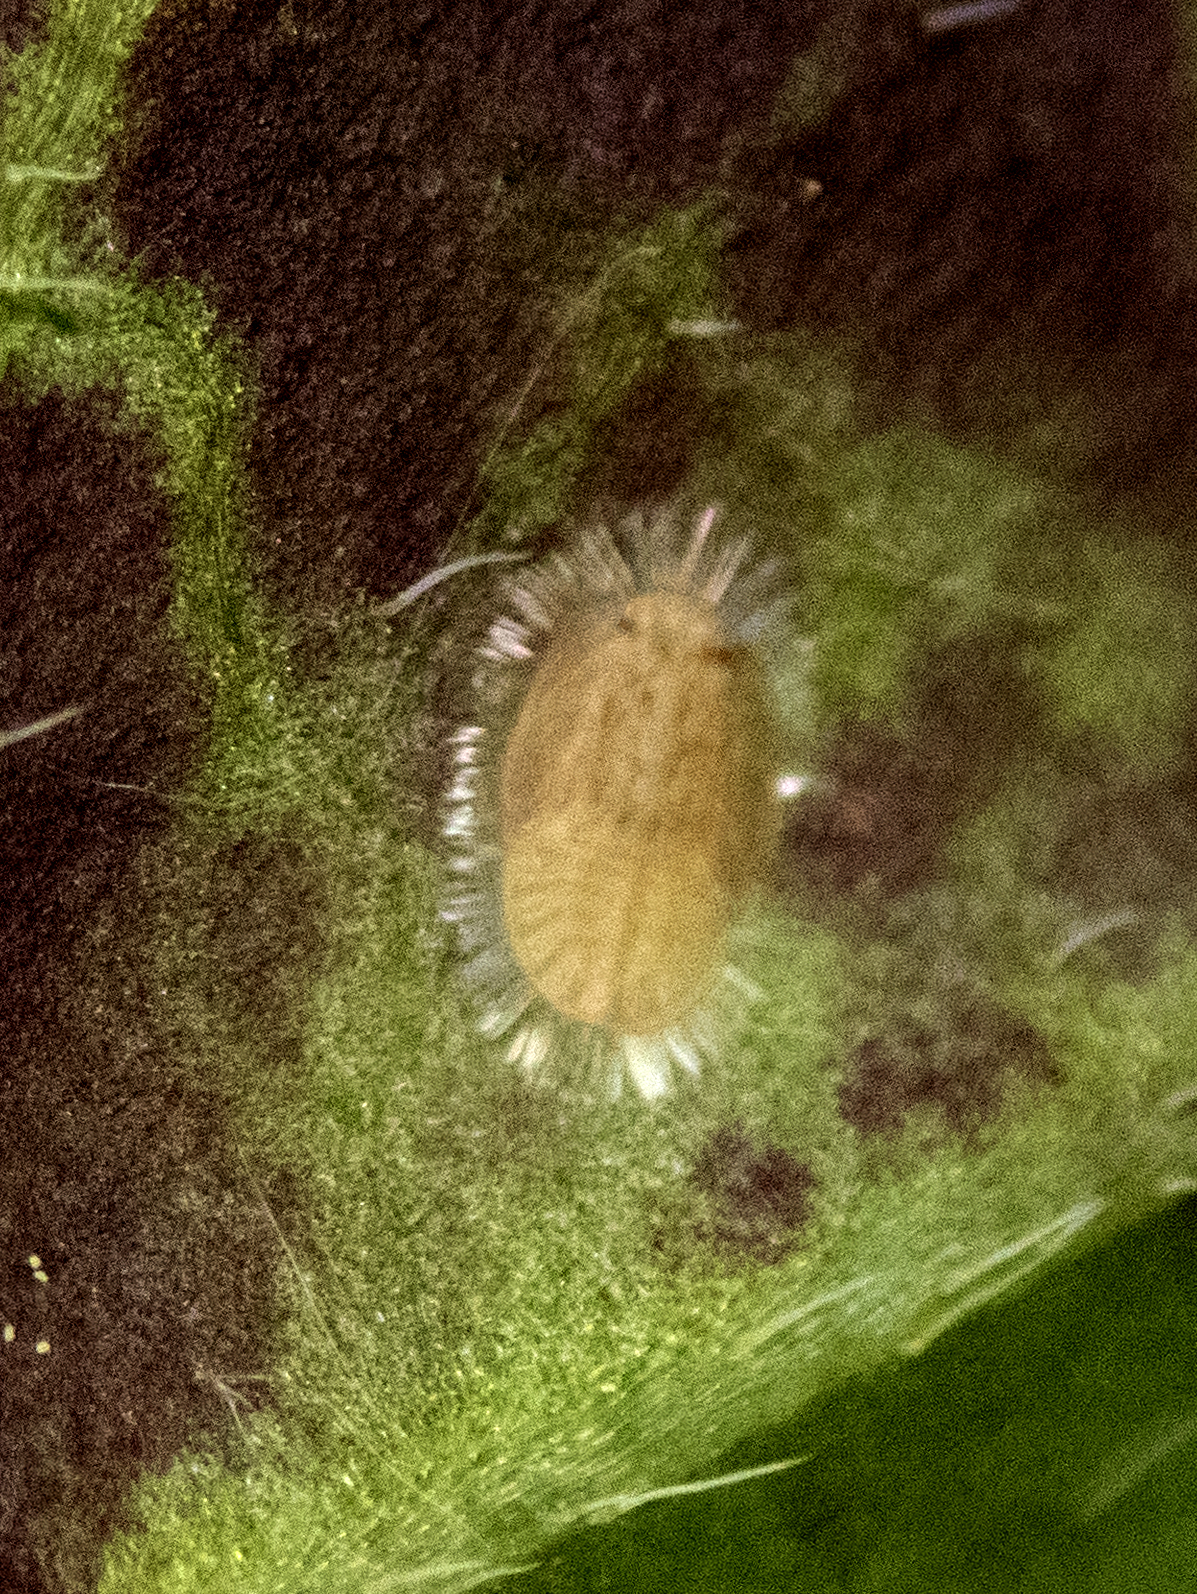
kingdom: Animalia
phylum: Arthropoda
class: Insecta
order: Hemiptera
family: Triozidae
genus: Bactericera
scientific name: Bactericera antennata
